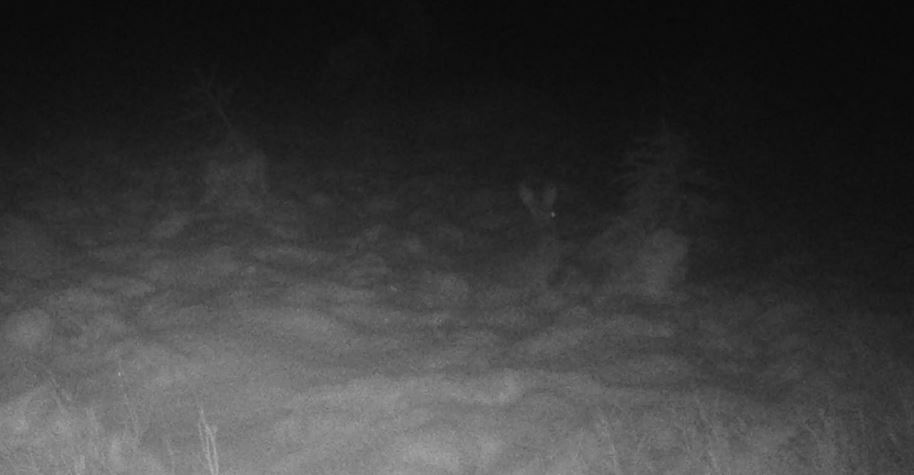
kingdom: Animalia
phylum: Chordata
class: Mammalia
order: Lagomorpha
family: Leporidae
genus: Lepus
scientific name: Lepus europaeus
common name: European hare
